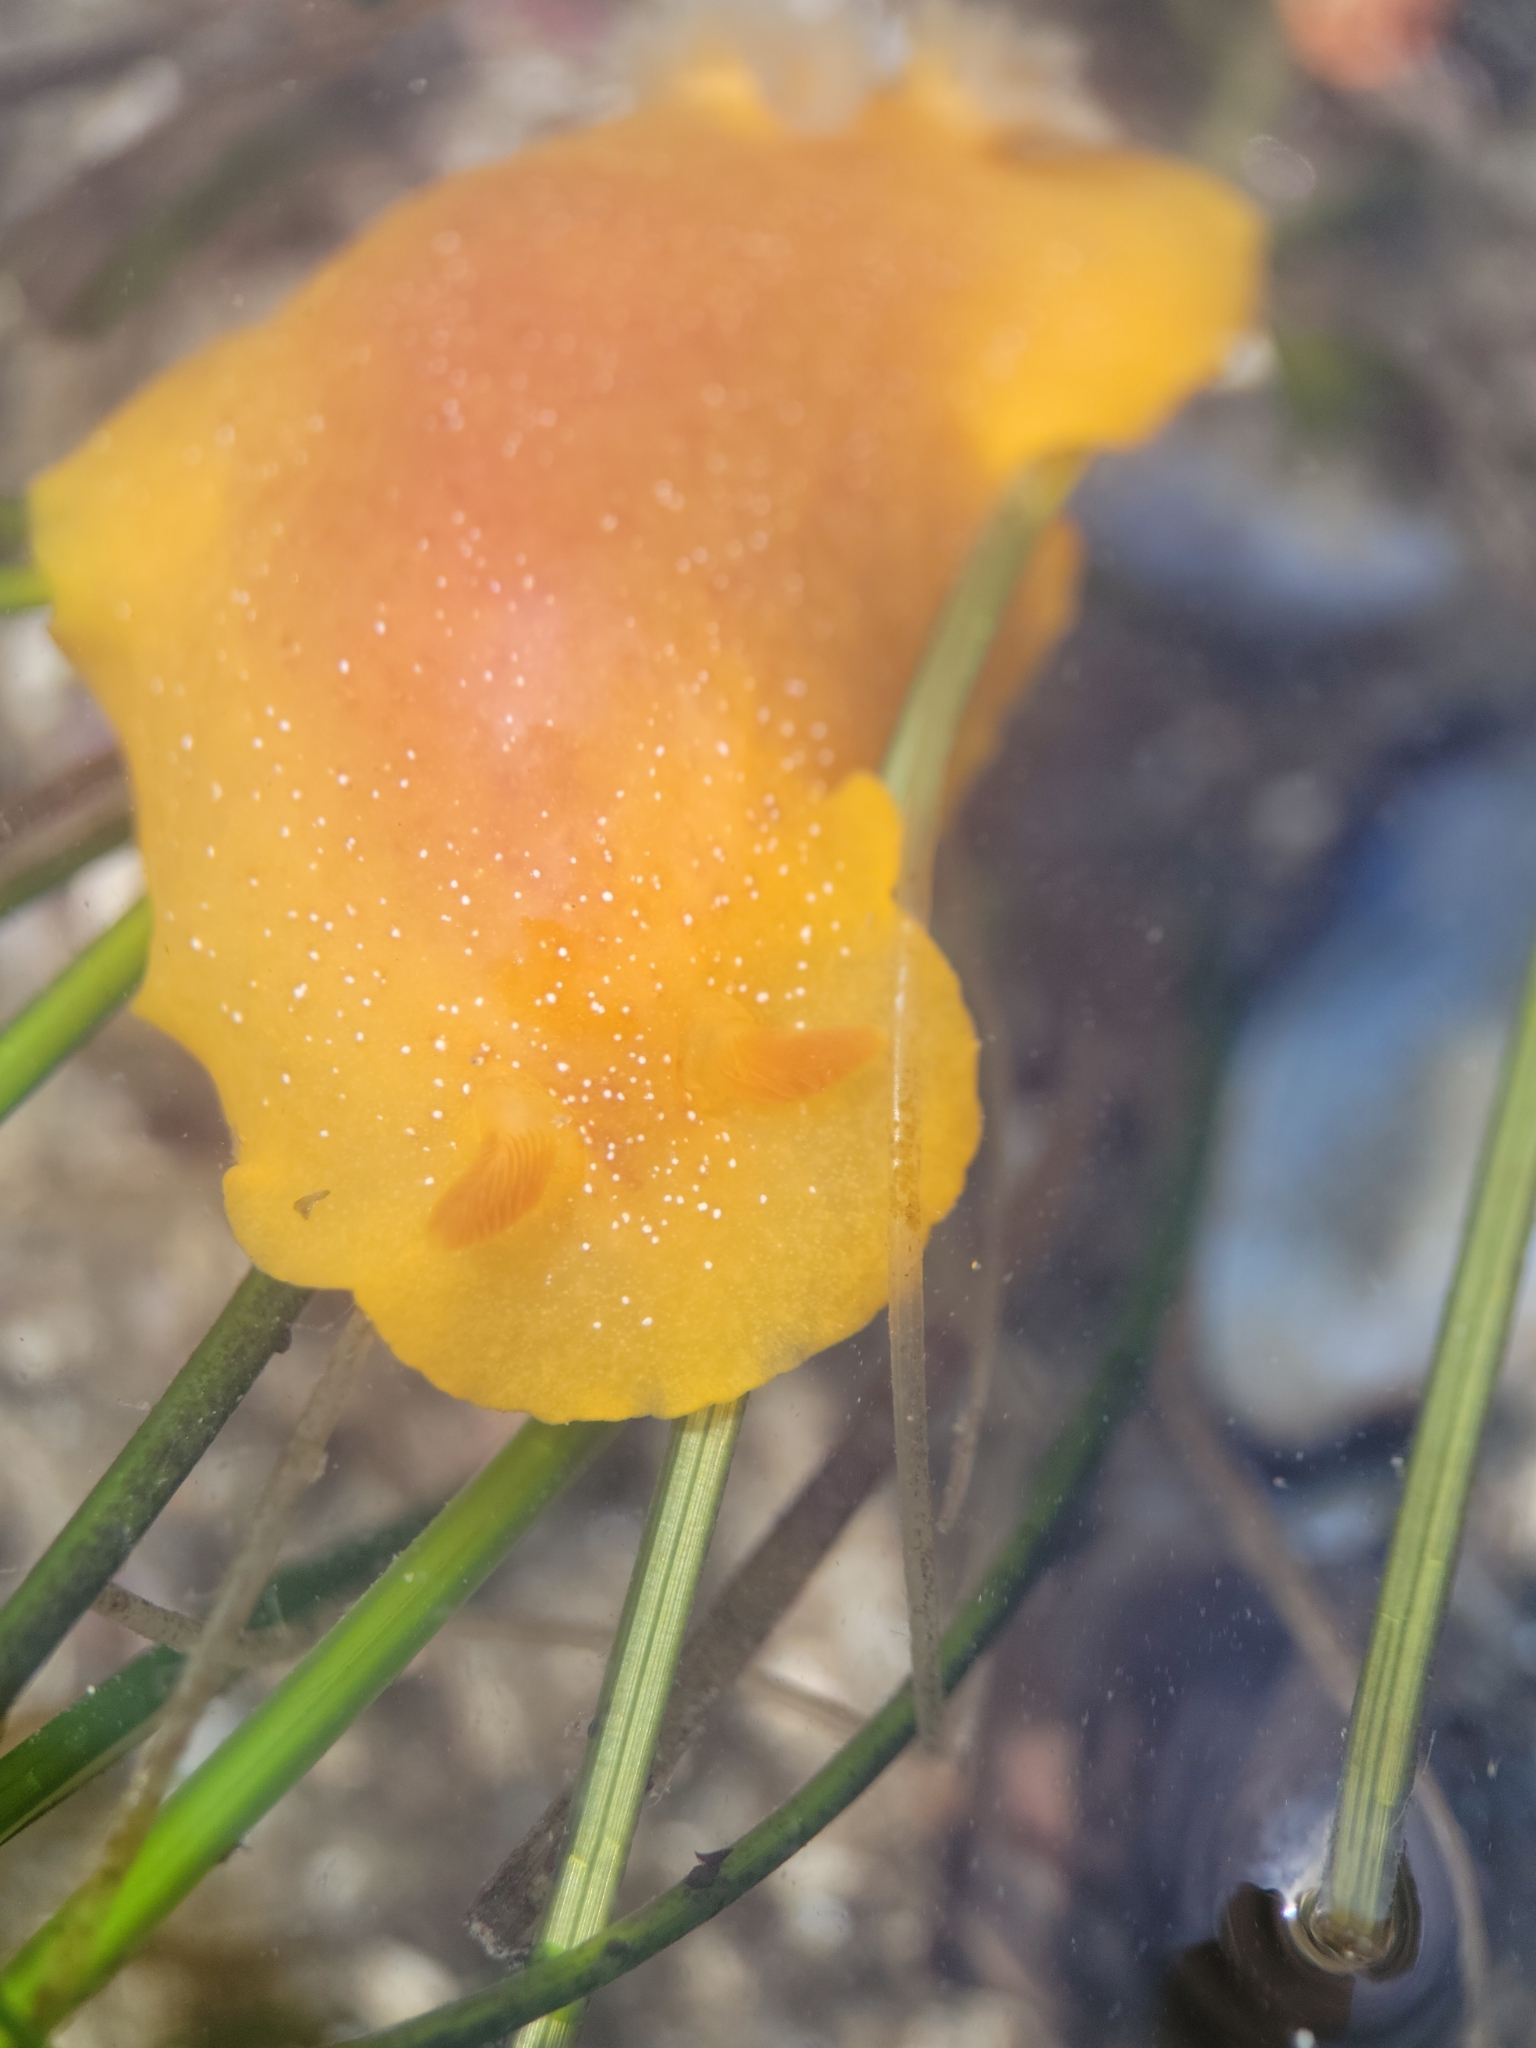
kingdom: Animalia
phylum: Mollusca
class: Gastropoda
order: Nudibranchia
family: Dendrodorididae
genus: Doriopsilla
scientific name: Doriopsilla albopunctata
